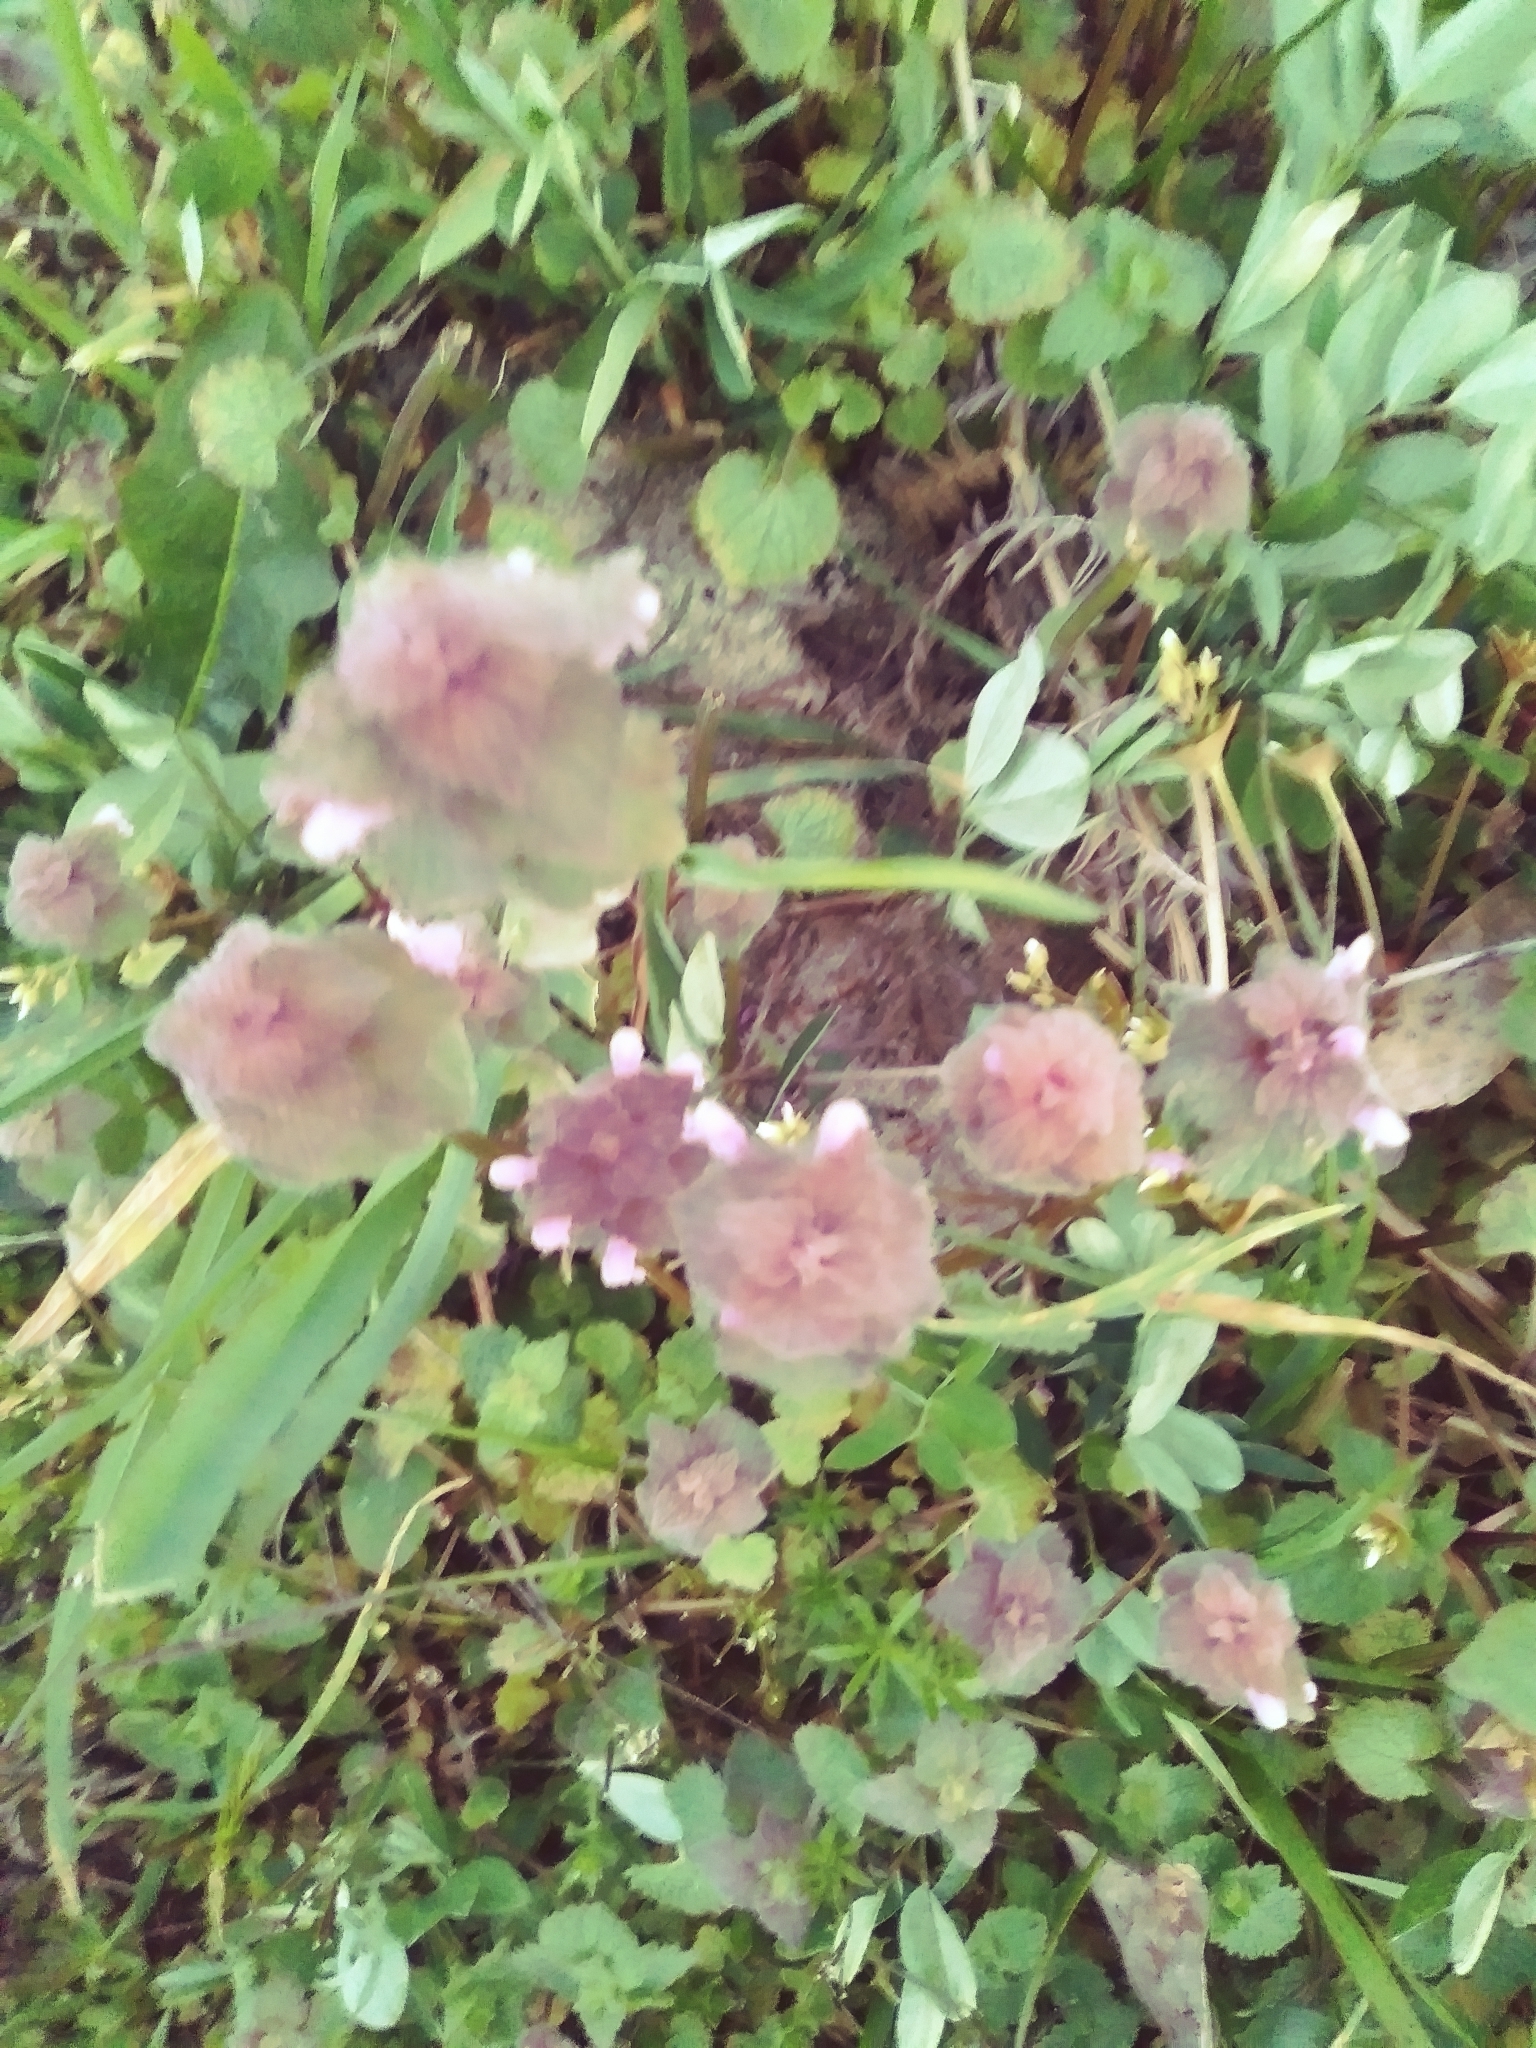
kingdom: Plantae
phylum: Tracheophyta
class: Magnoliopsida
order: Lamiales
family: Lamiaceae
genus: Lamium
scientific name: Lamium purpureum
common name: Red dead-nettle
